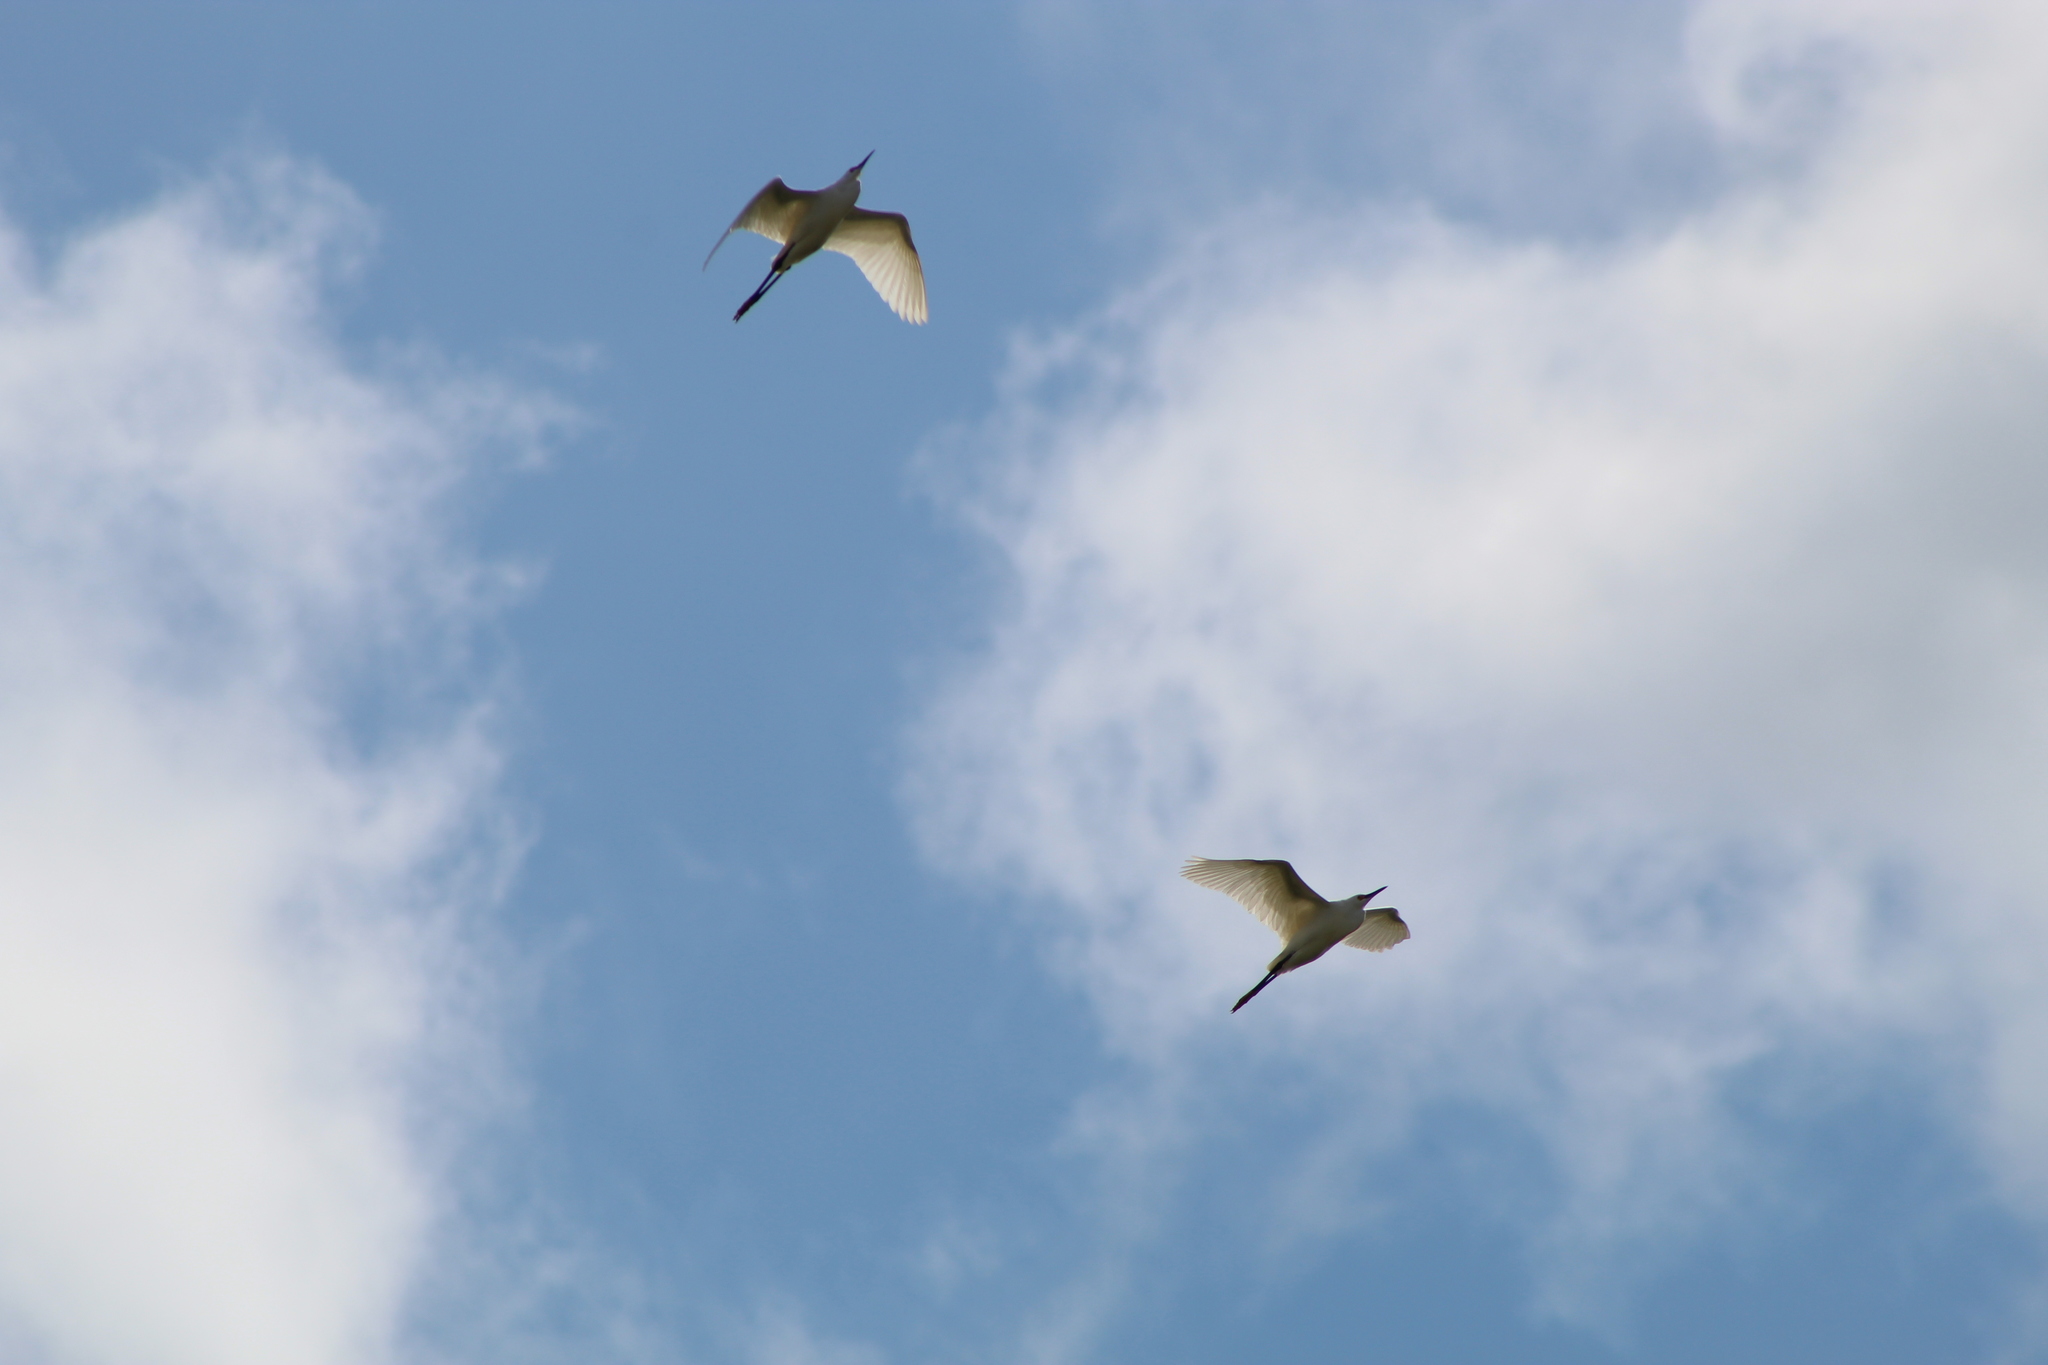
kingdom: Animalia
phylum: Chordata
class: Aves
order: Pelecaniformes
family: Ardeidae
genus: Ardea
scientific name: Ardea alba
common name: Great egret
